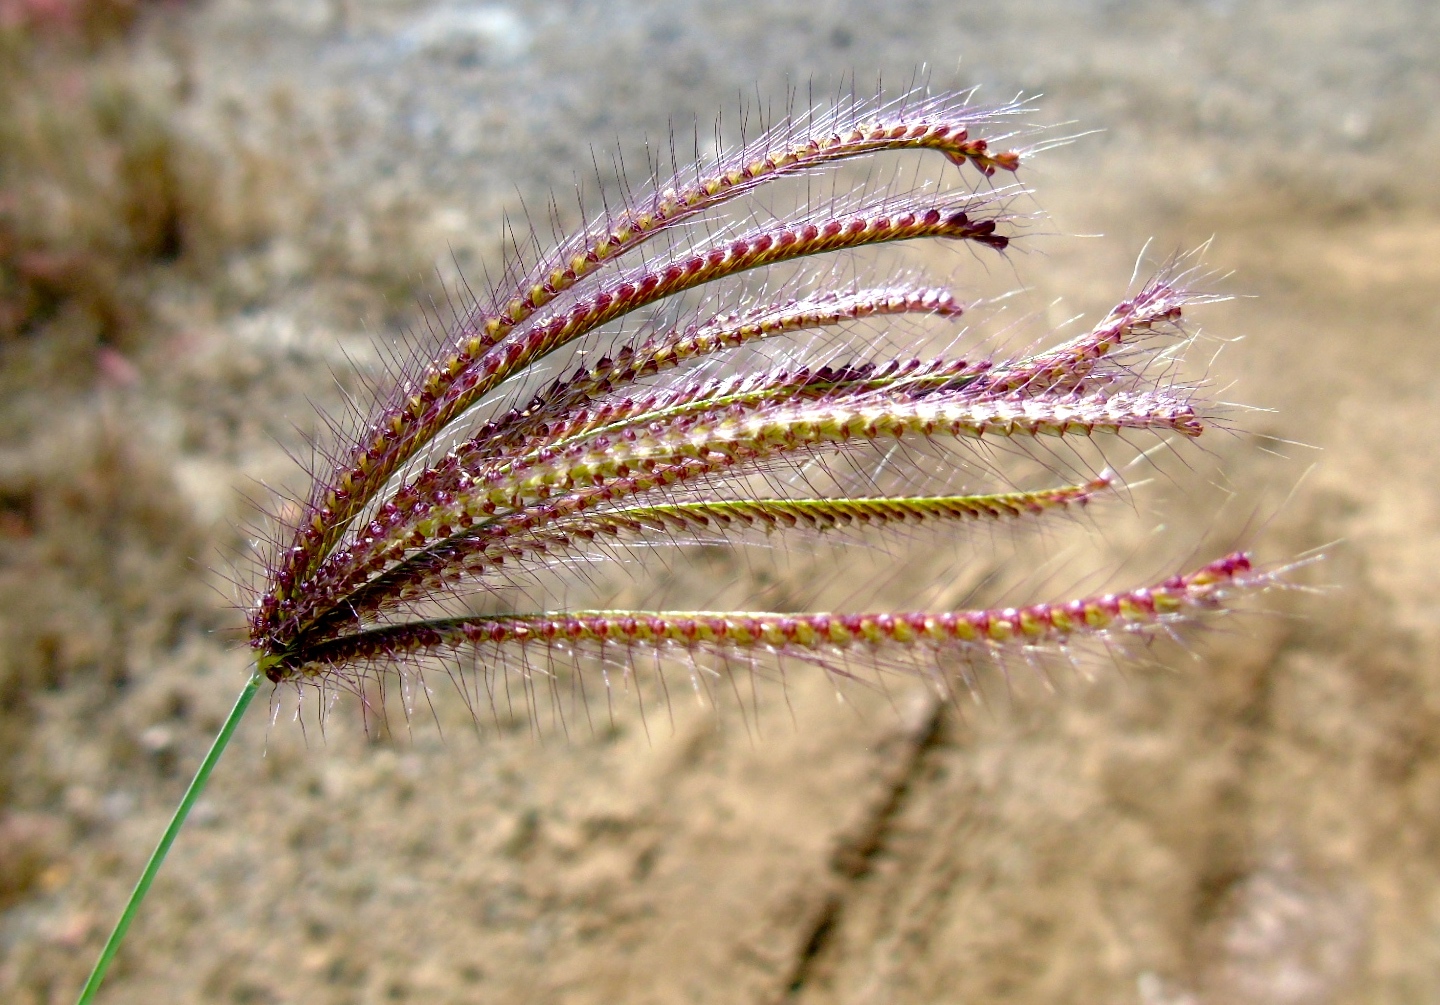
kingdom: Plantae
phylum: Tracheophyta
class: Liliopsida
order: Poales
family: Poaceae
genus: Chloris
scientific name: Chloris virgata
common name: Feathery rhodes-grass
